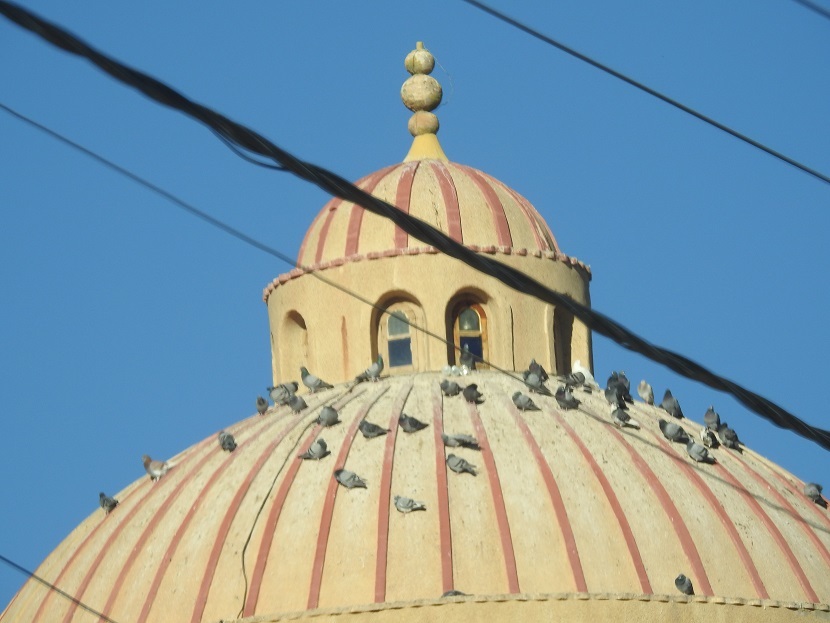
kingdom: Animalia
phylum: Chordata
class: Aves
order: Columbiformes
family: Columbidae
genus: Columba
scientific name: Columba livia
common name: Rock pigeon
